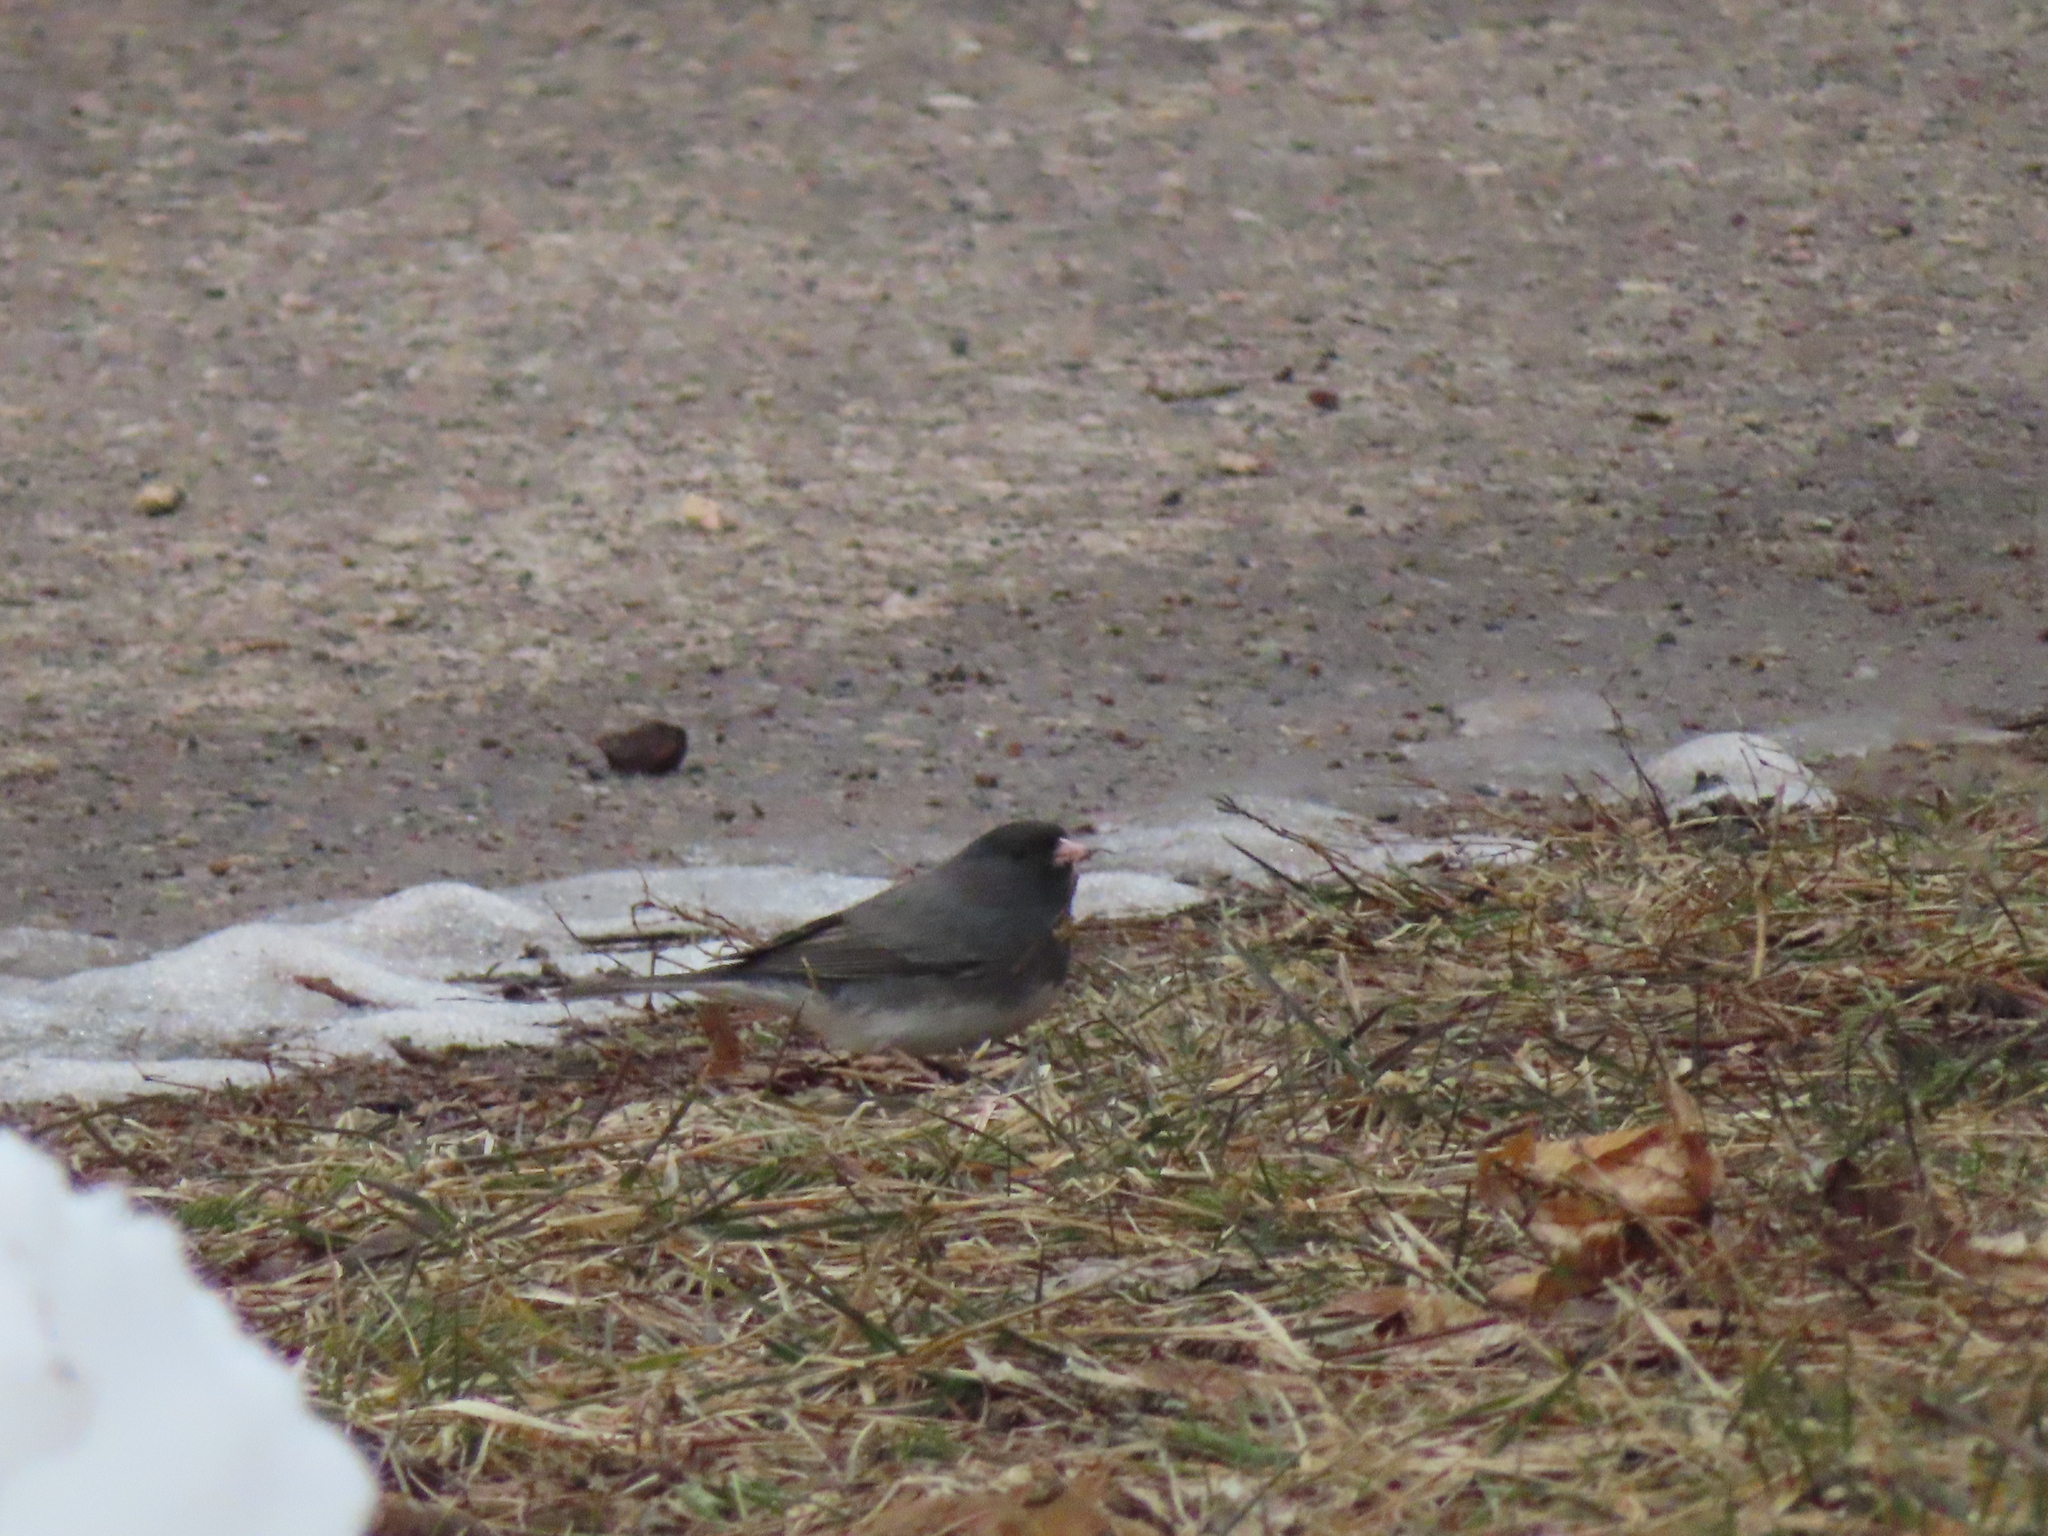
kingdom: Animalia
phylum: Chordata
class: Aves
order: Passeriformes
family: Passerellidae
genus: Junco
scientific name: Junco hyemalis
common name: Dark-eyed junco
